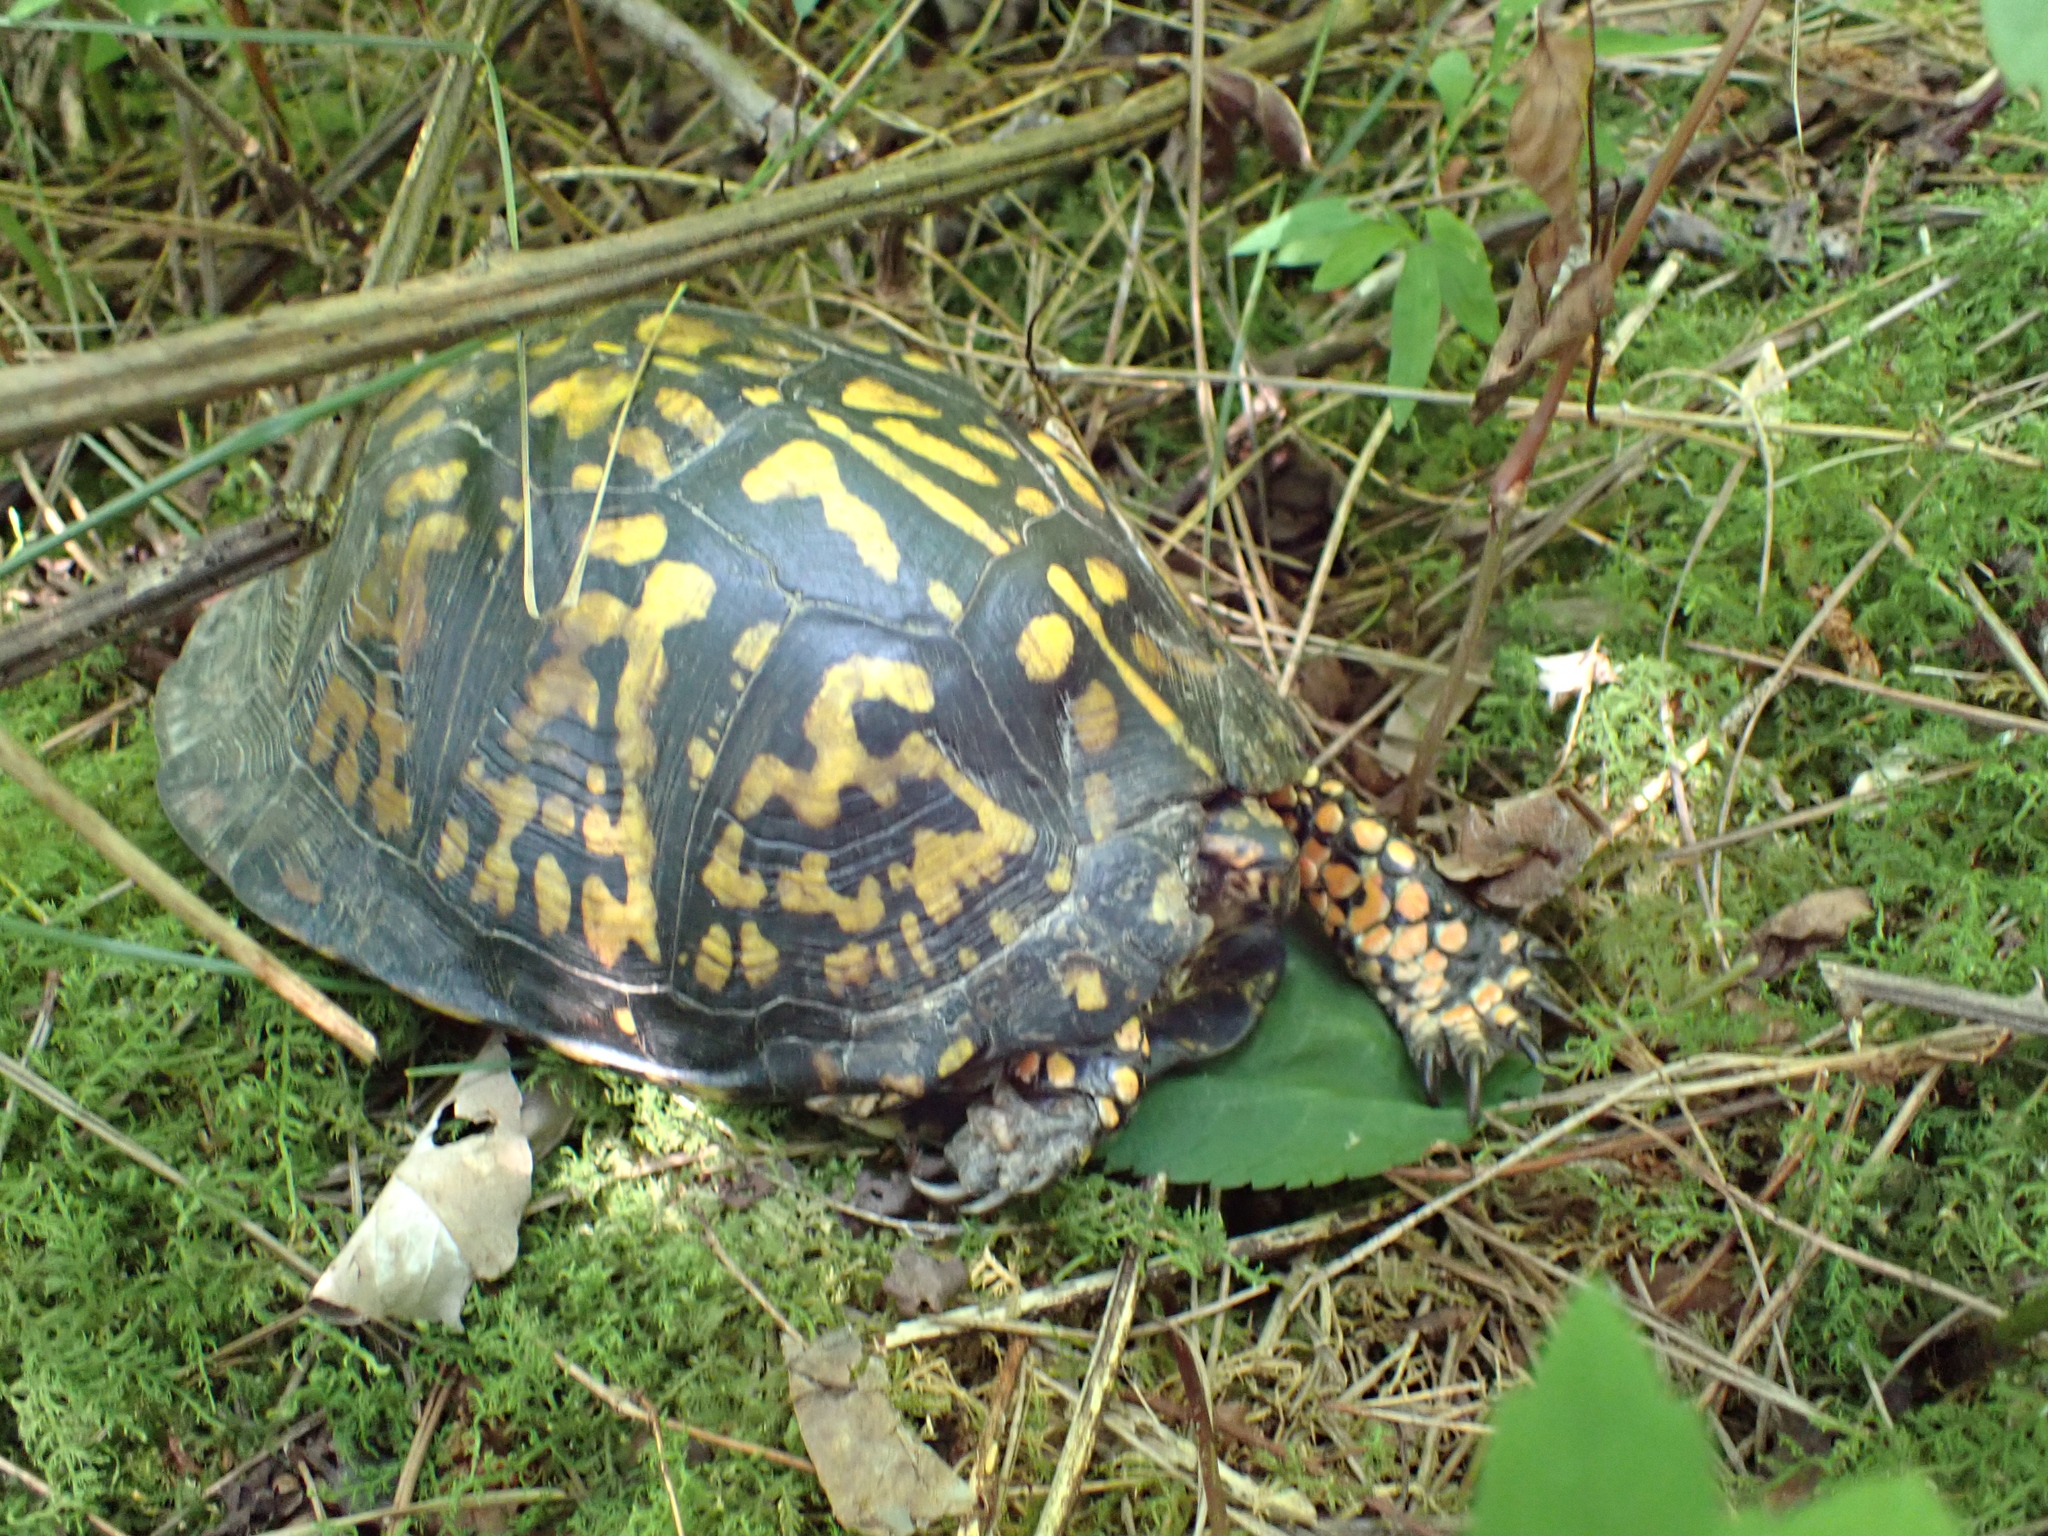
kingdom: Animalia
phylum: Chordata
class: Testudines
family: Emydidae
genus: Terrapene
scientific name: Terrapene carolina
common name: Common box turtle
